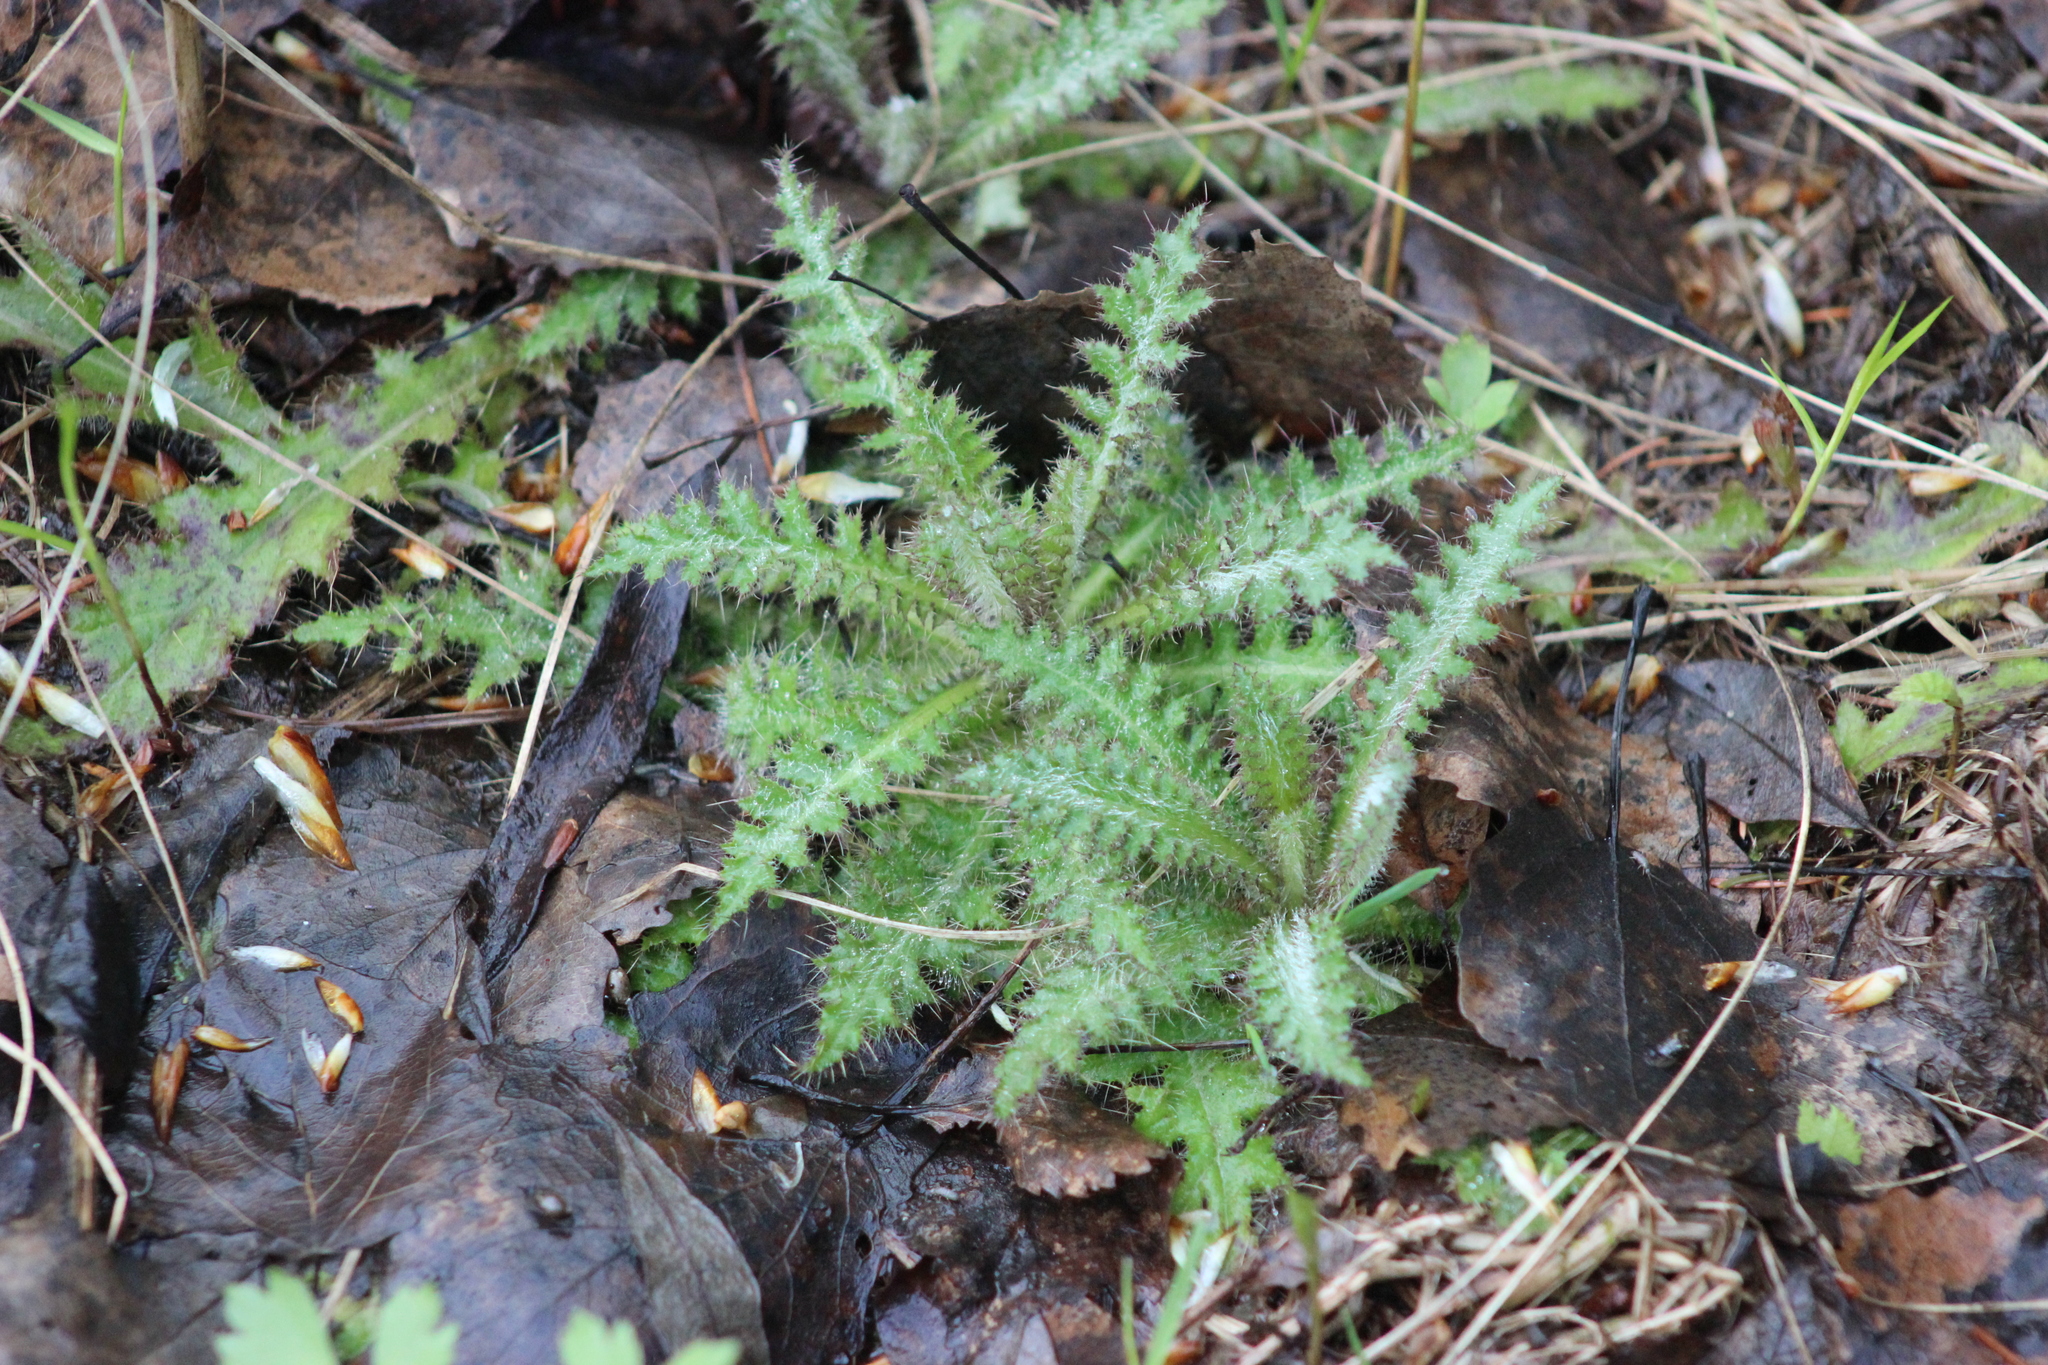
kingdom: Plantae
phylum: Tracheophyta
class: Magnoliopsida
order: Asterales
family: Asteraceae
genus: Cirsium
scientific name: Cirsium palustre
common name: Marsh thistle
